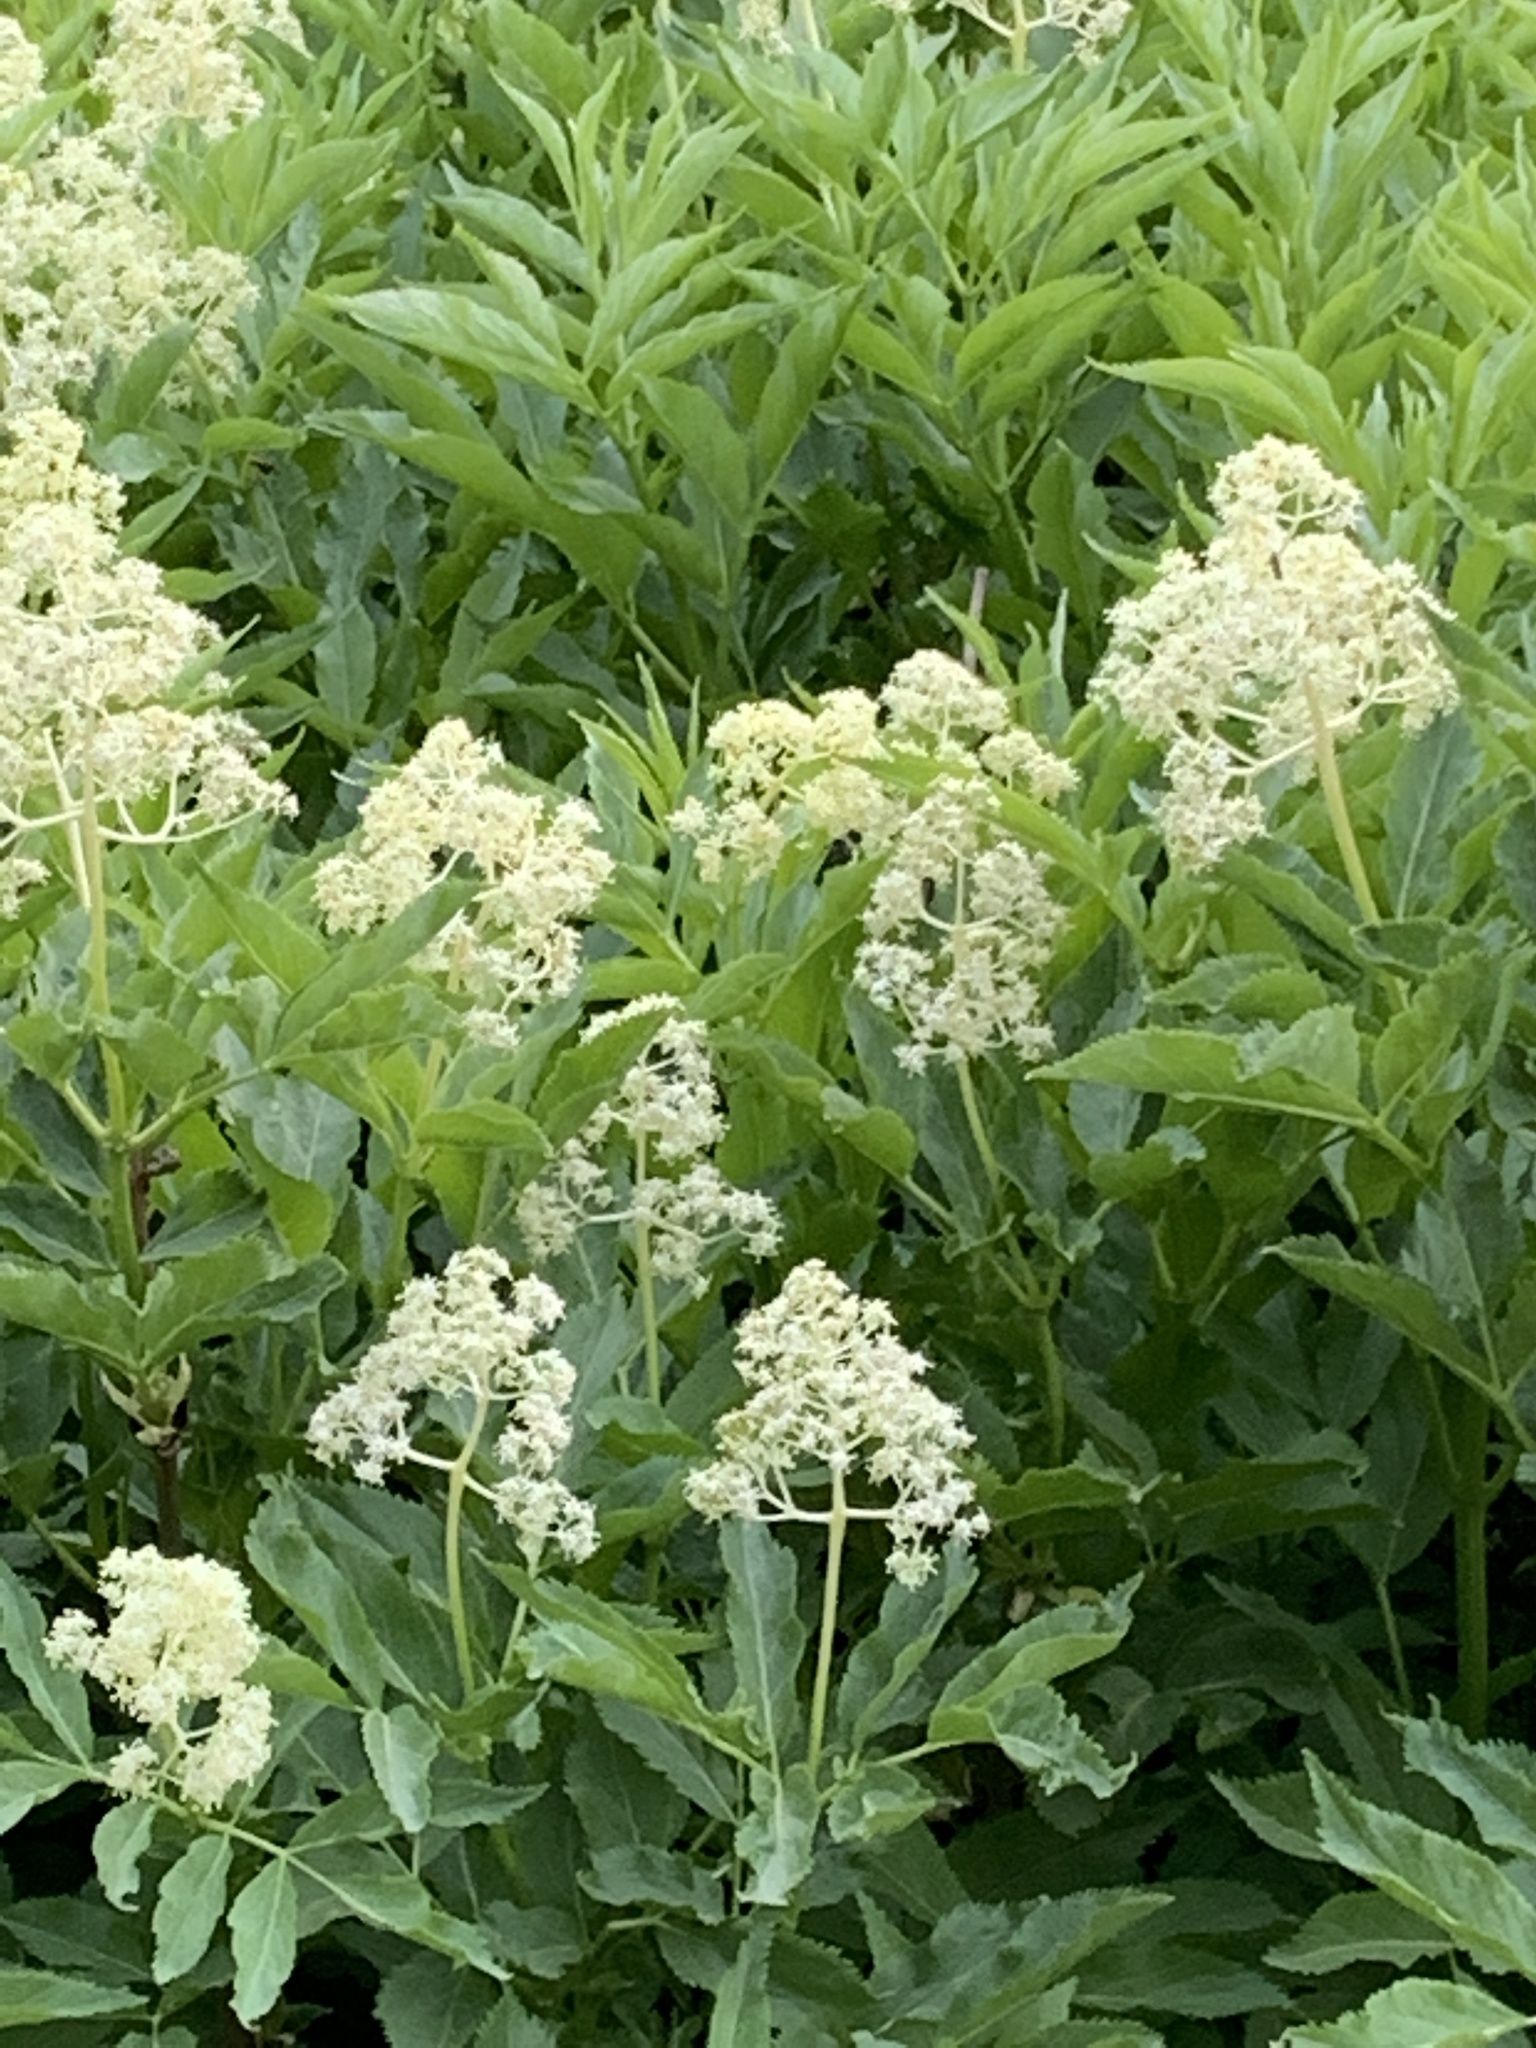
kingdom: Plantae
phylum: Tracheophyta
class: Magnoliopsida
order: Dipsacales
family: Viburnaceae
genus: Sambucus
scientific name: Sambucus racemosa
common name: Red-berried elder
